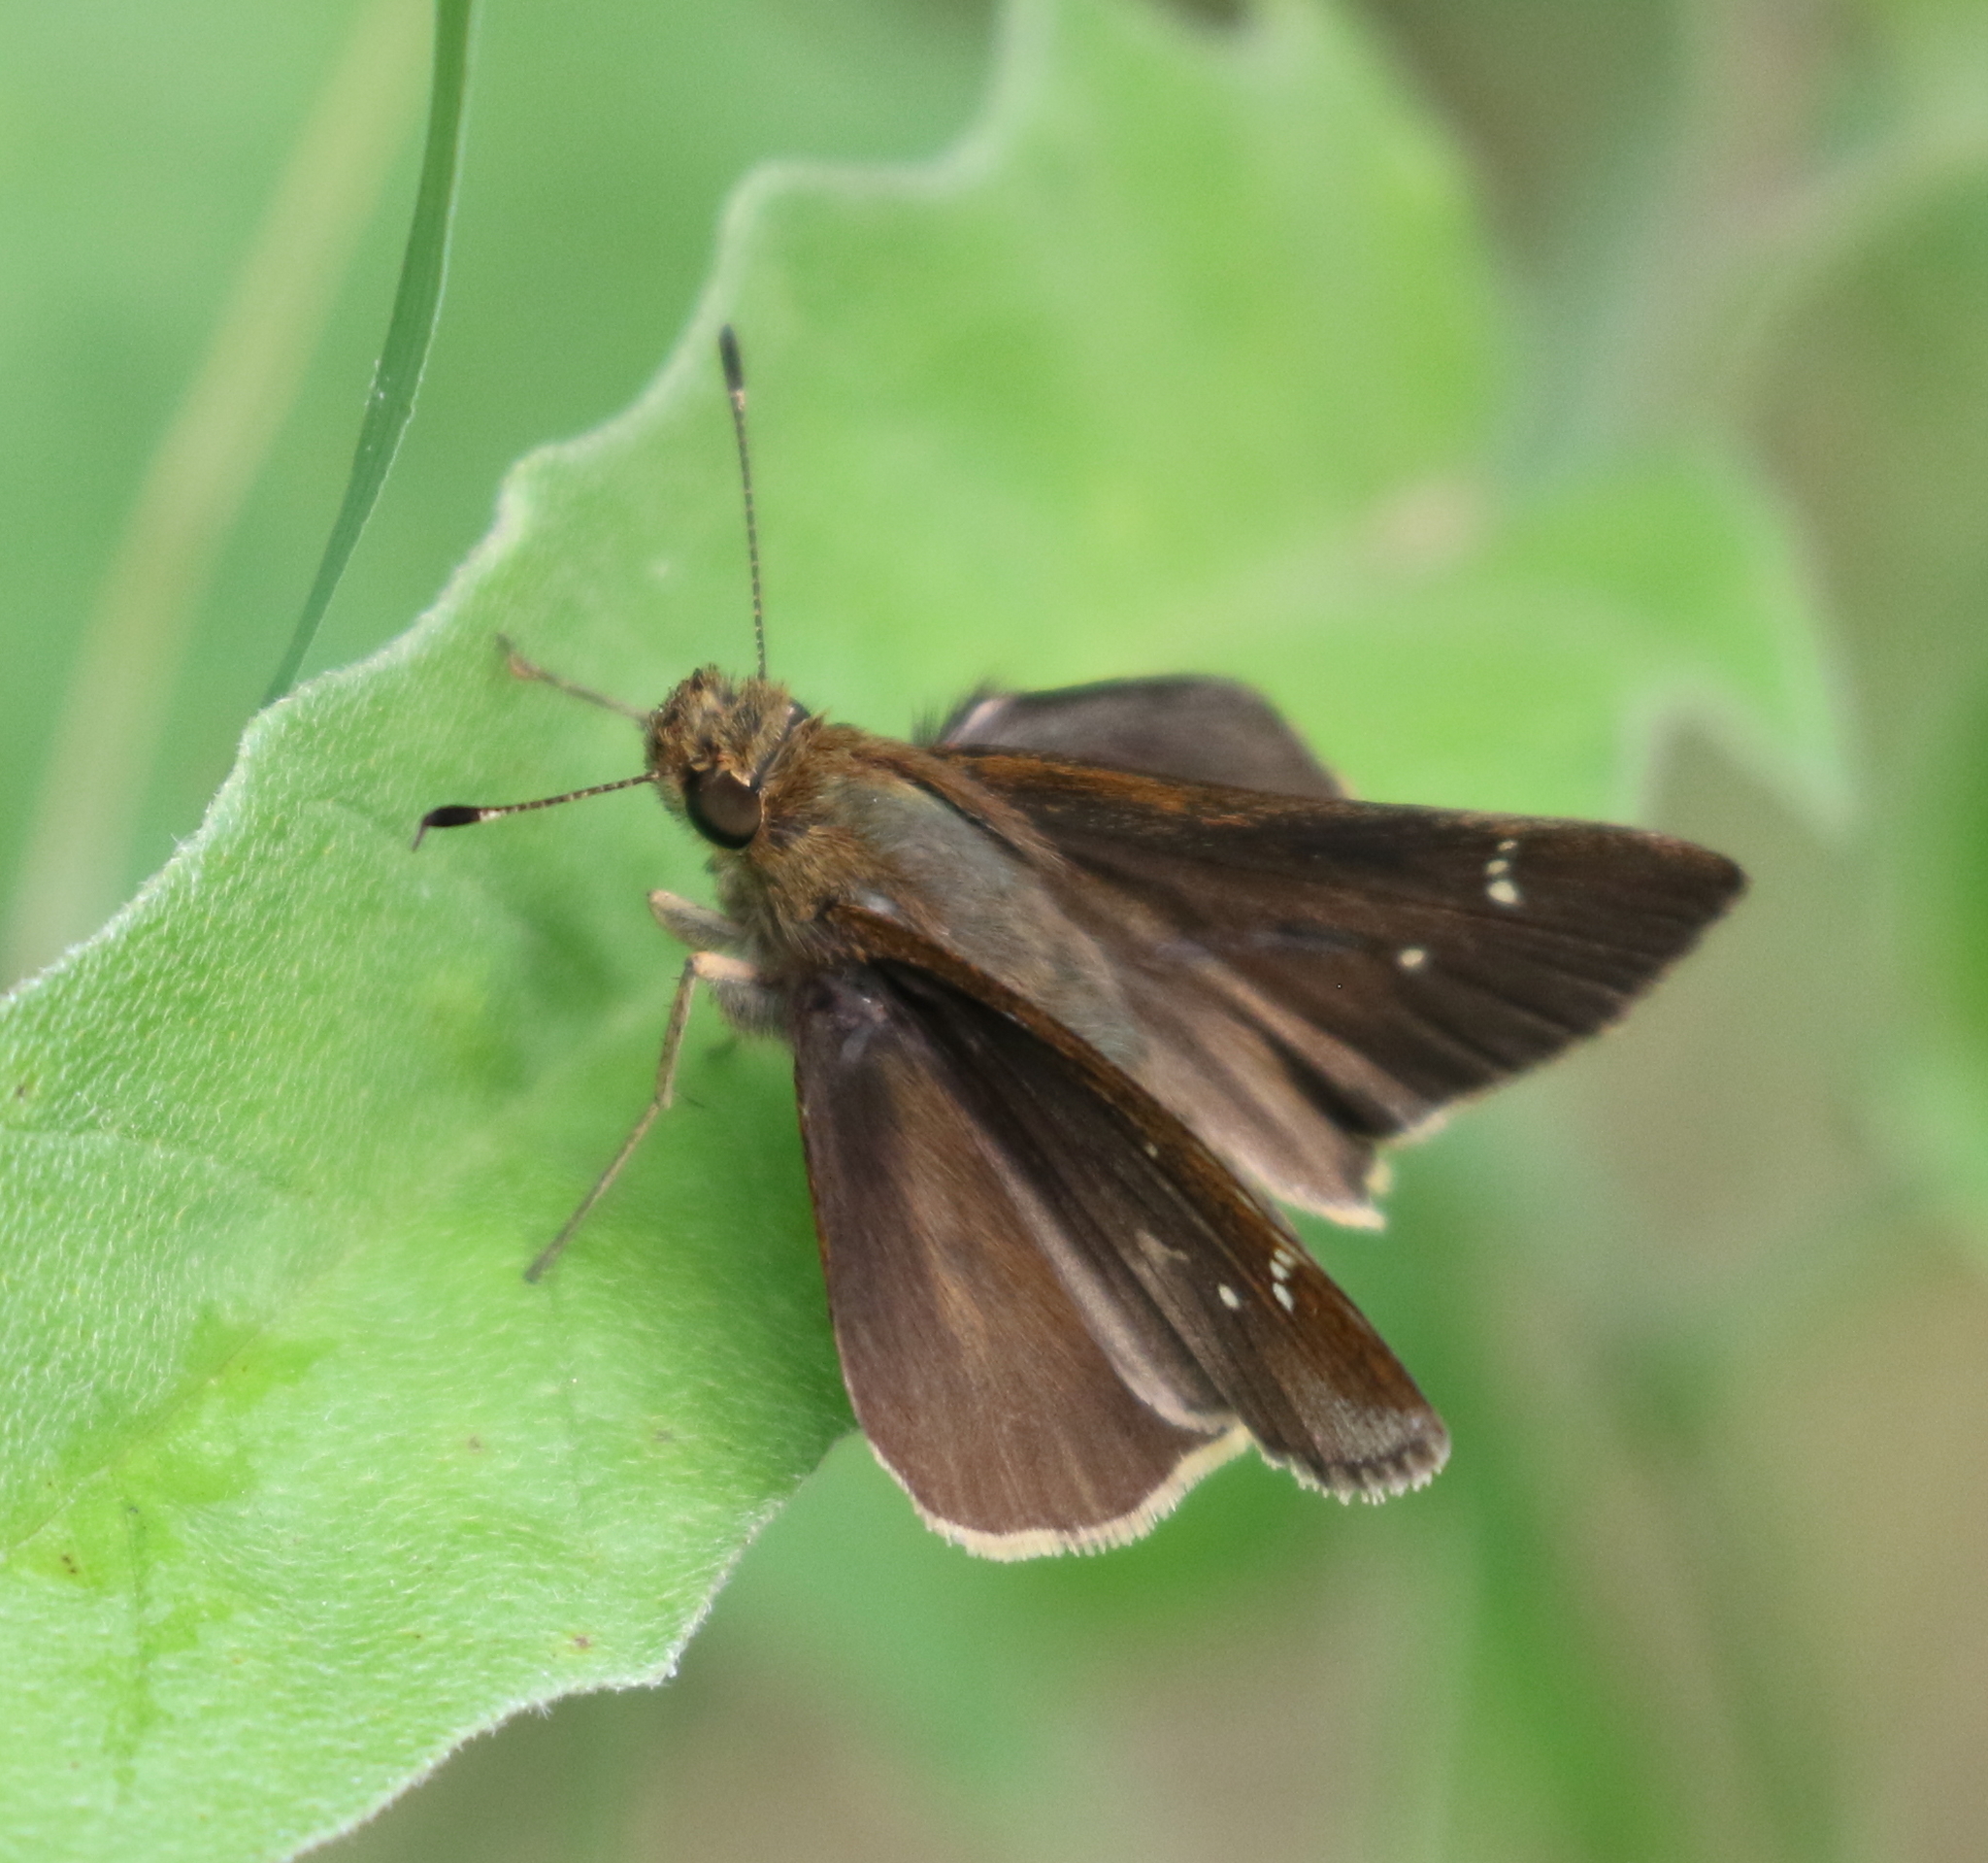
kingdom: Animalia
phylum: Arthropoda
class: Insecta
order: Lepidoptera
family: Hesperiidae
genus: Lerema
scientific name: Lerema accius
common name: Clouded skipper
